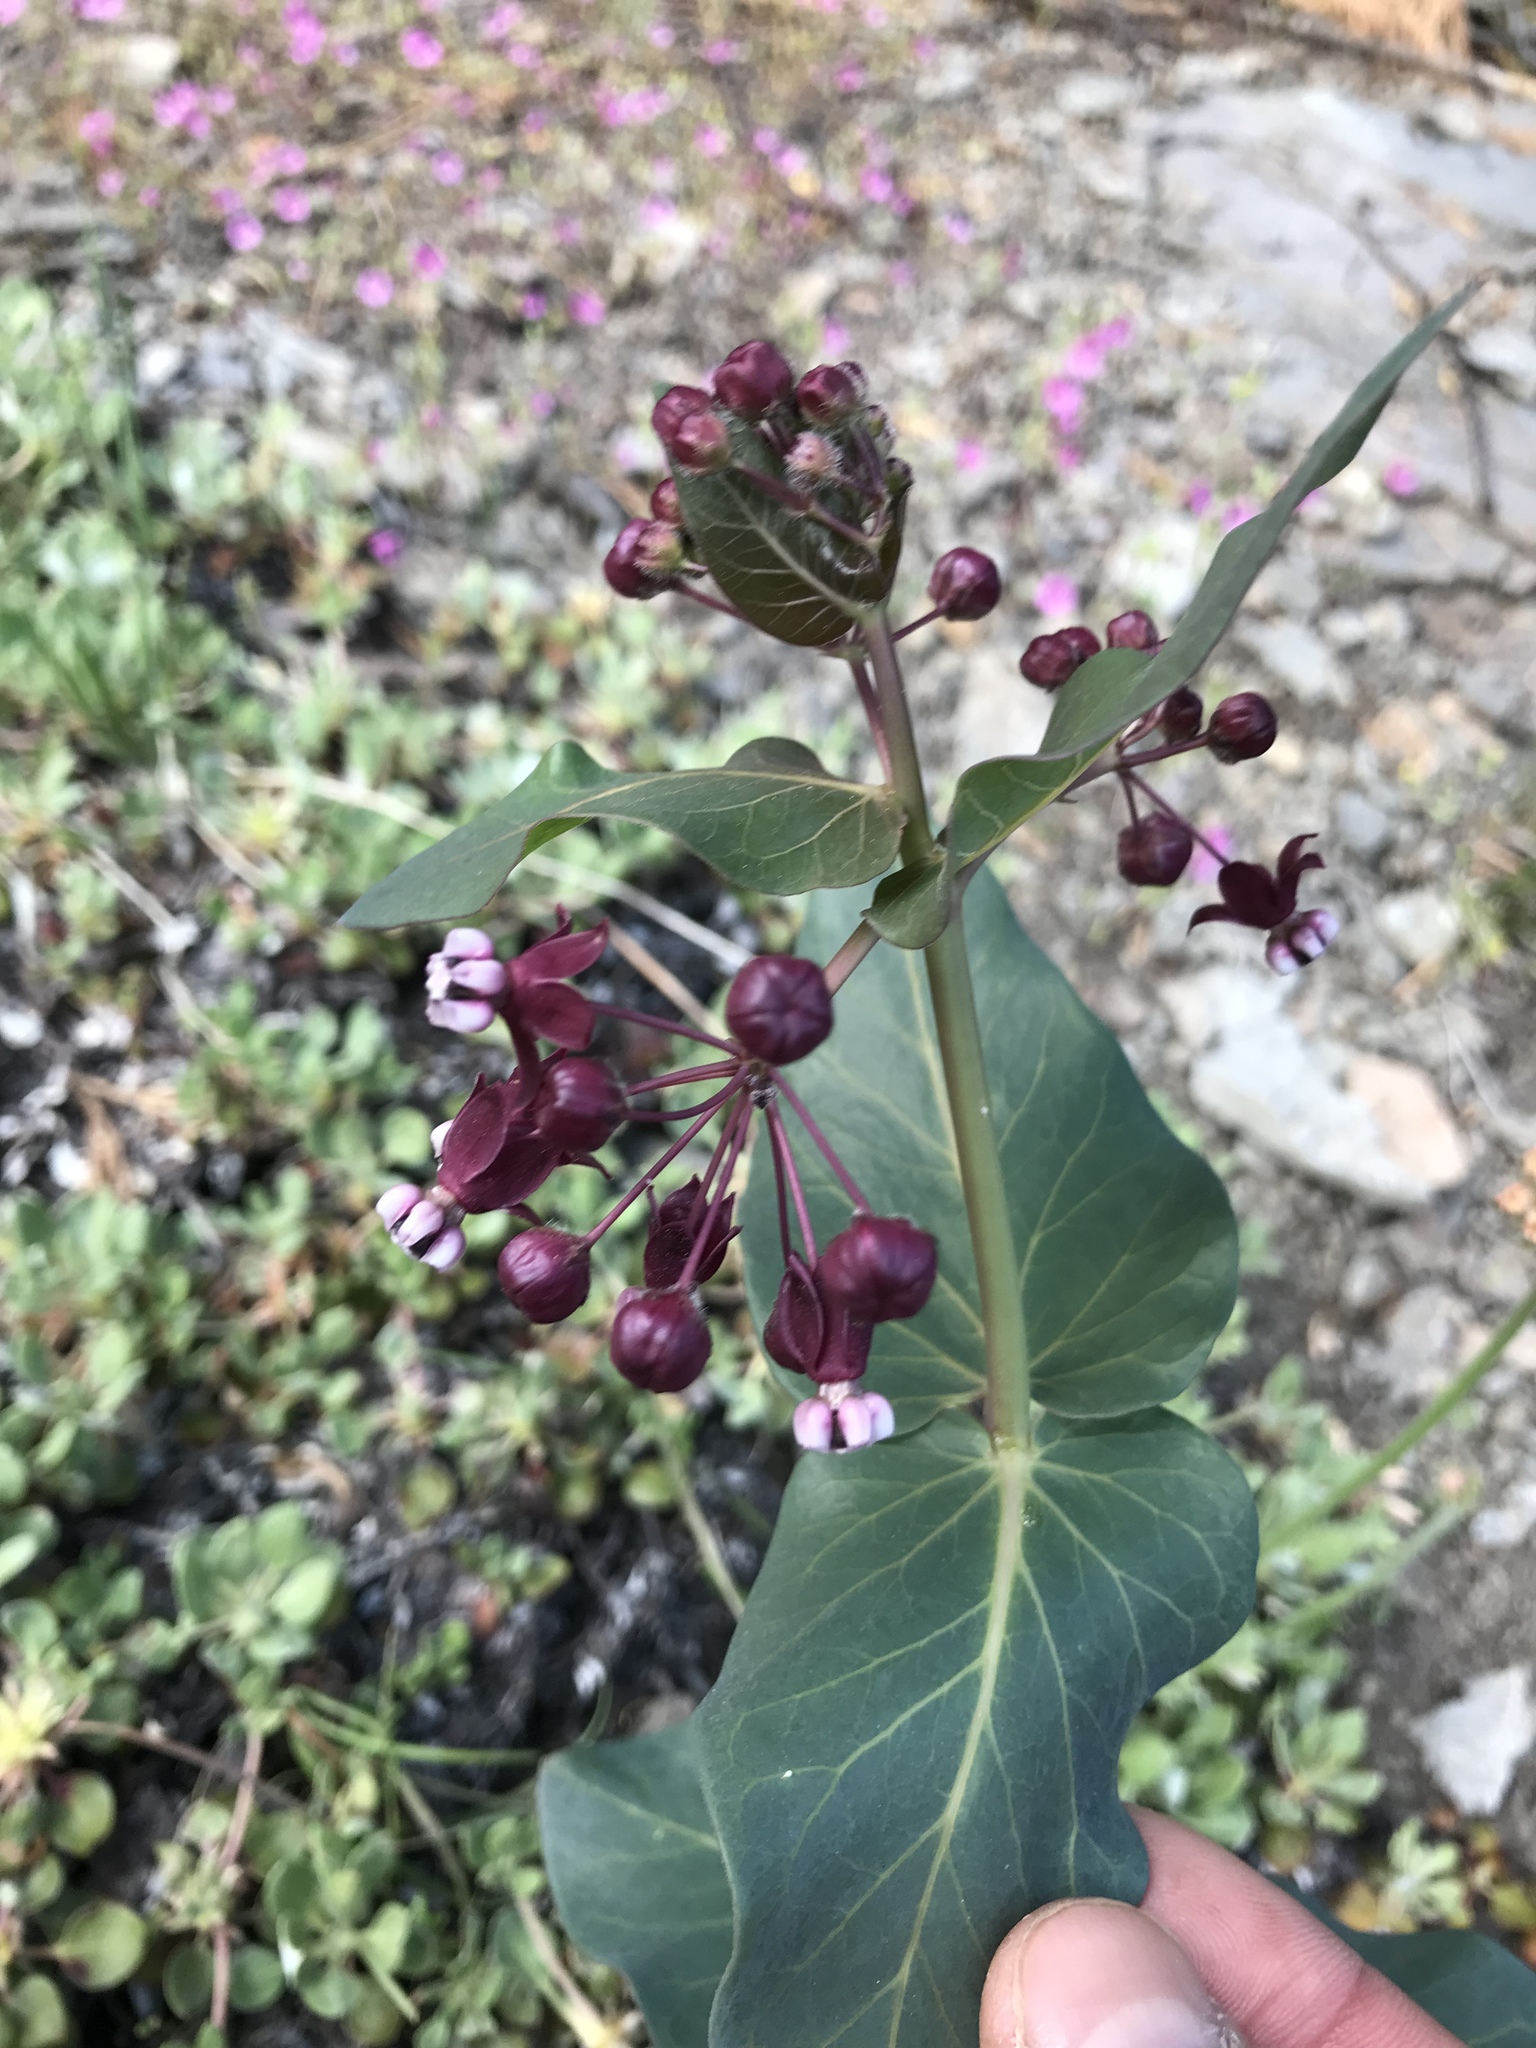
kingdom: Plantae
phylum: Tracheophyta
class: Magnoliopsida
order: Gentianales
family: Apocynaceae
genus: Asclepias
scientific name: Asclepias cordifolia
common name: Purple milkweed
